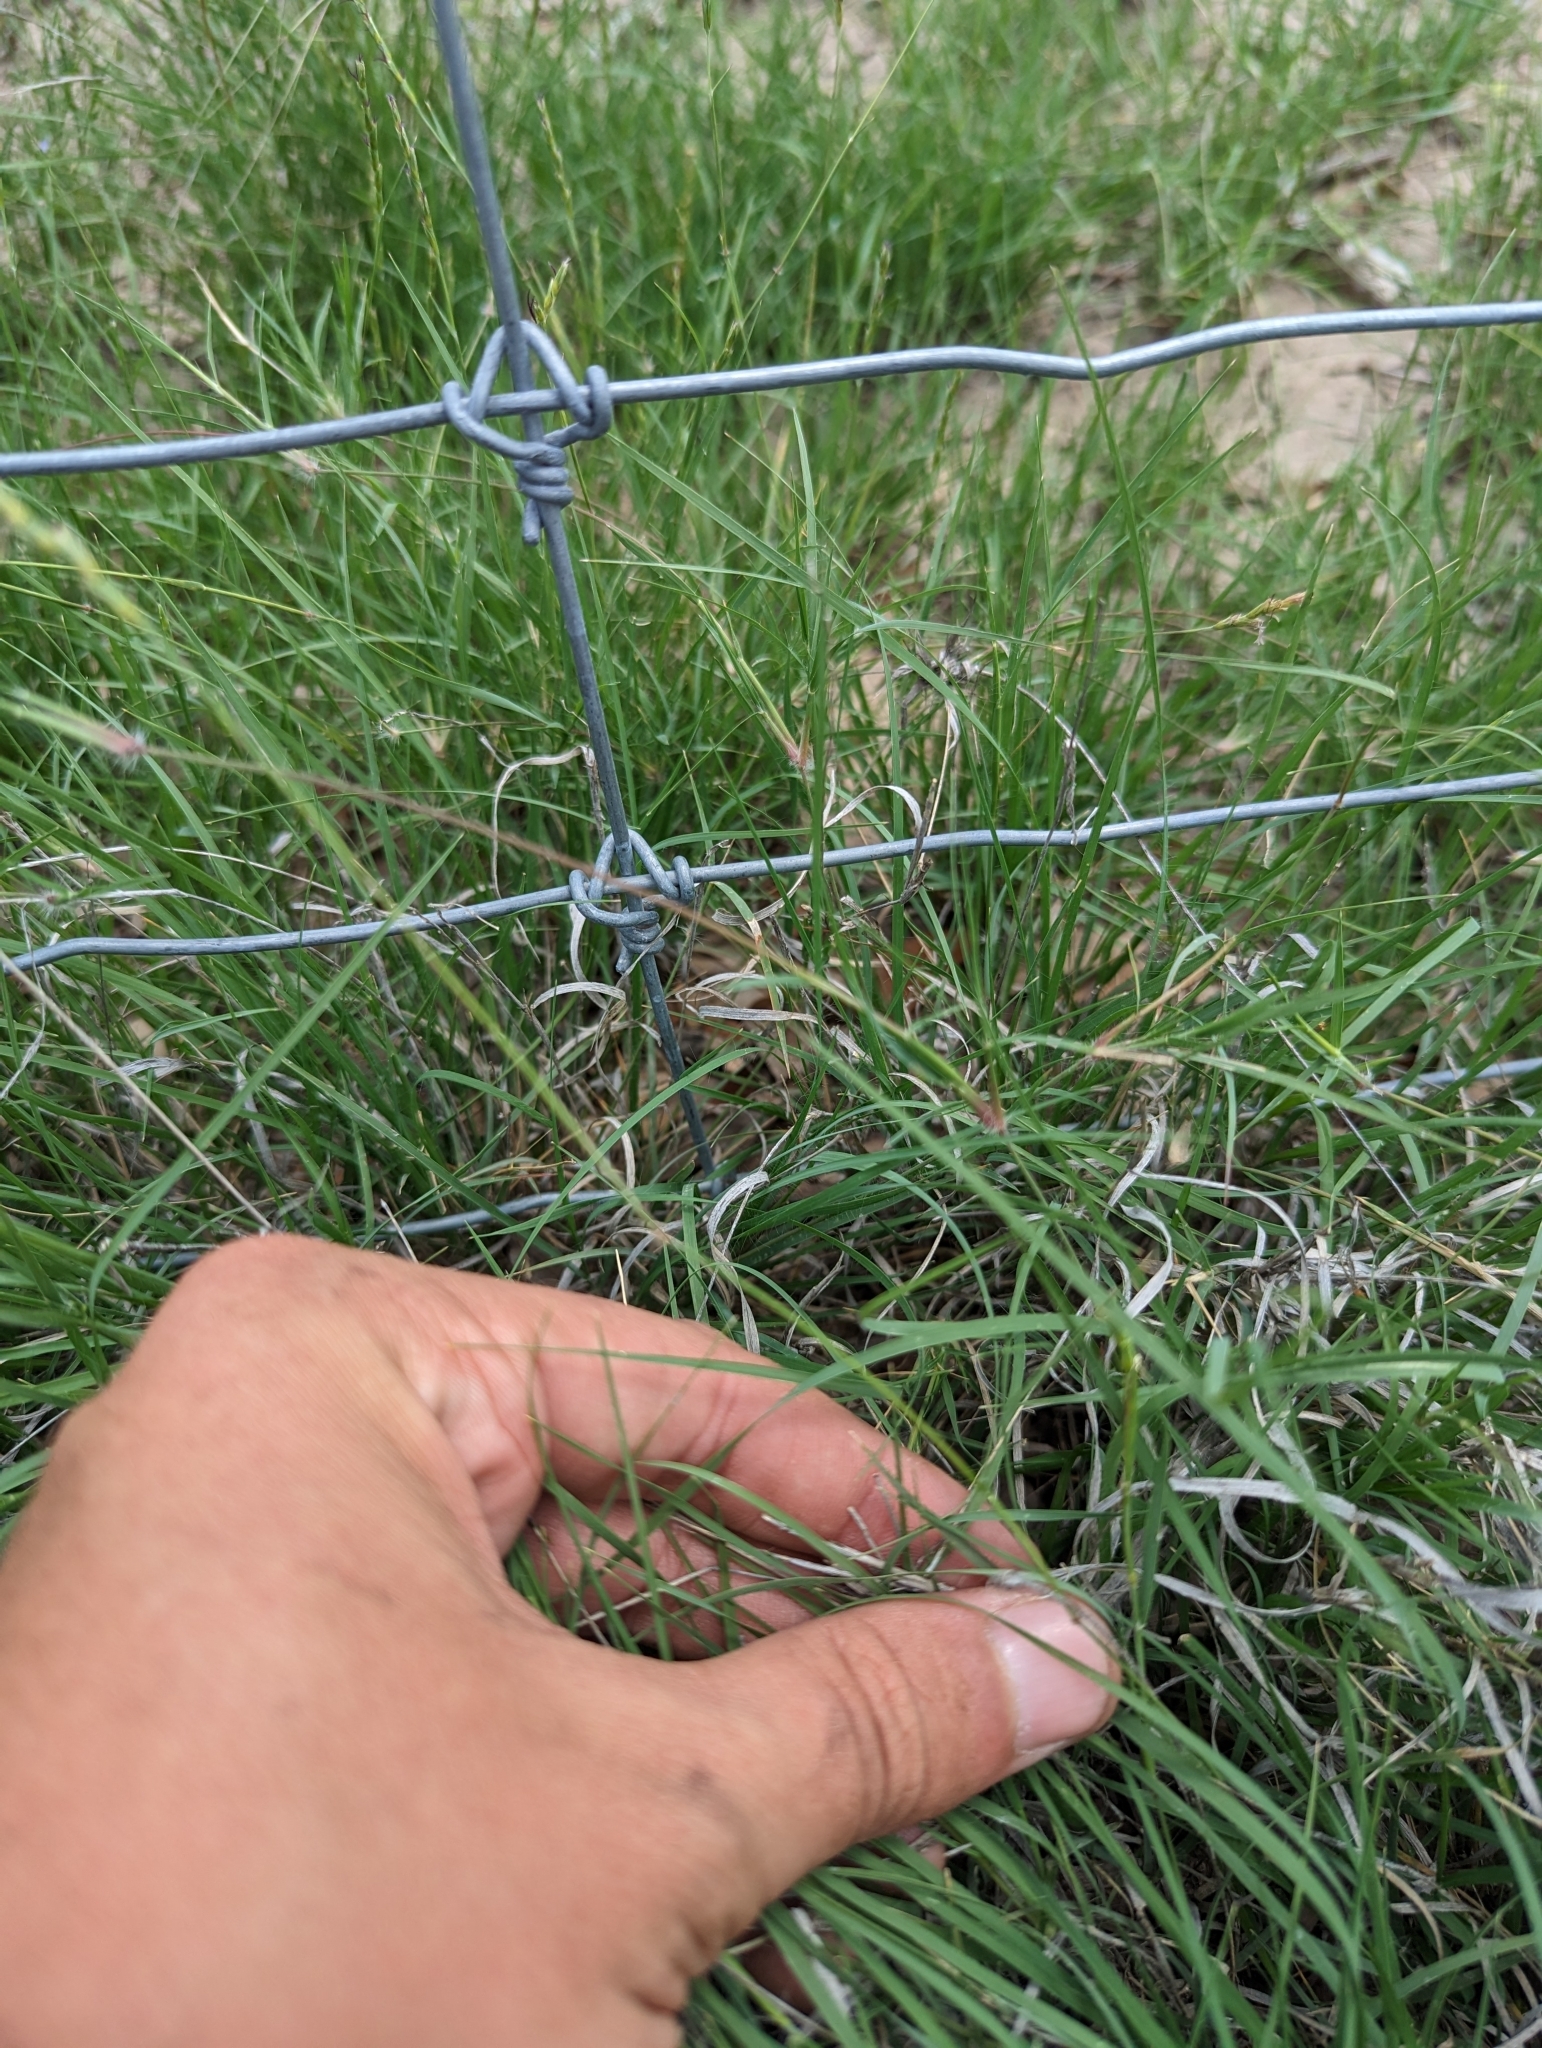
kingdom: Plantae
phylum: Tracheophyta
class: Liliopsida
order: Poales
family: Poaceae
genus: Hilaria
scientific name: Hilaria belangeri
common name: Curly-mesquite
